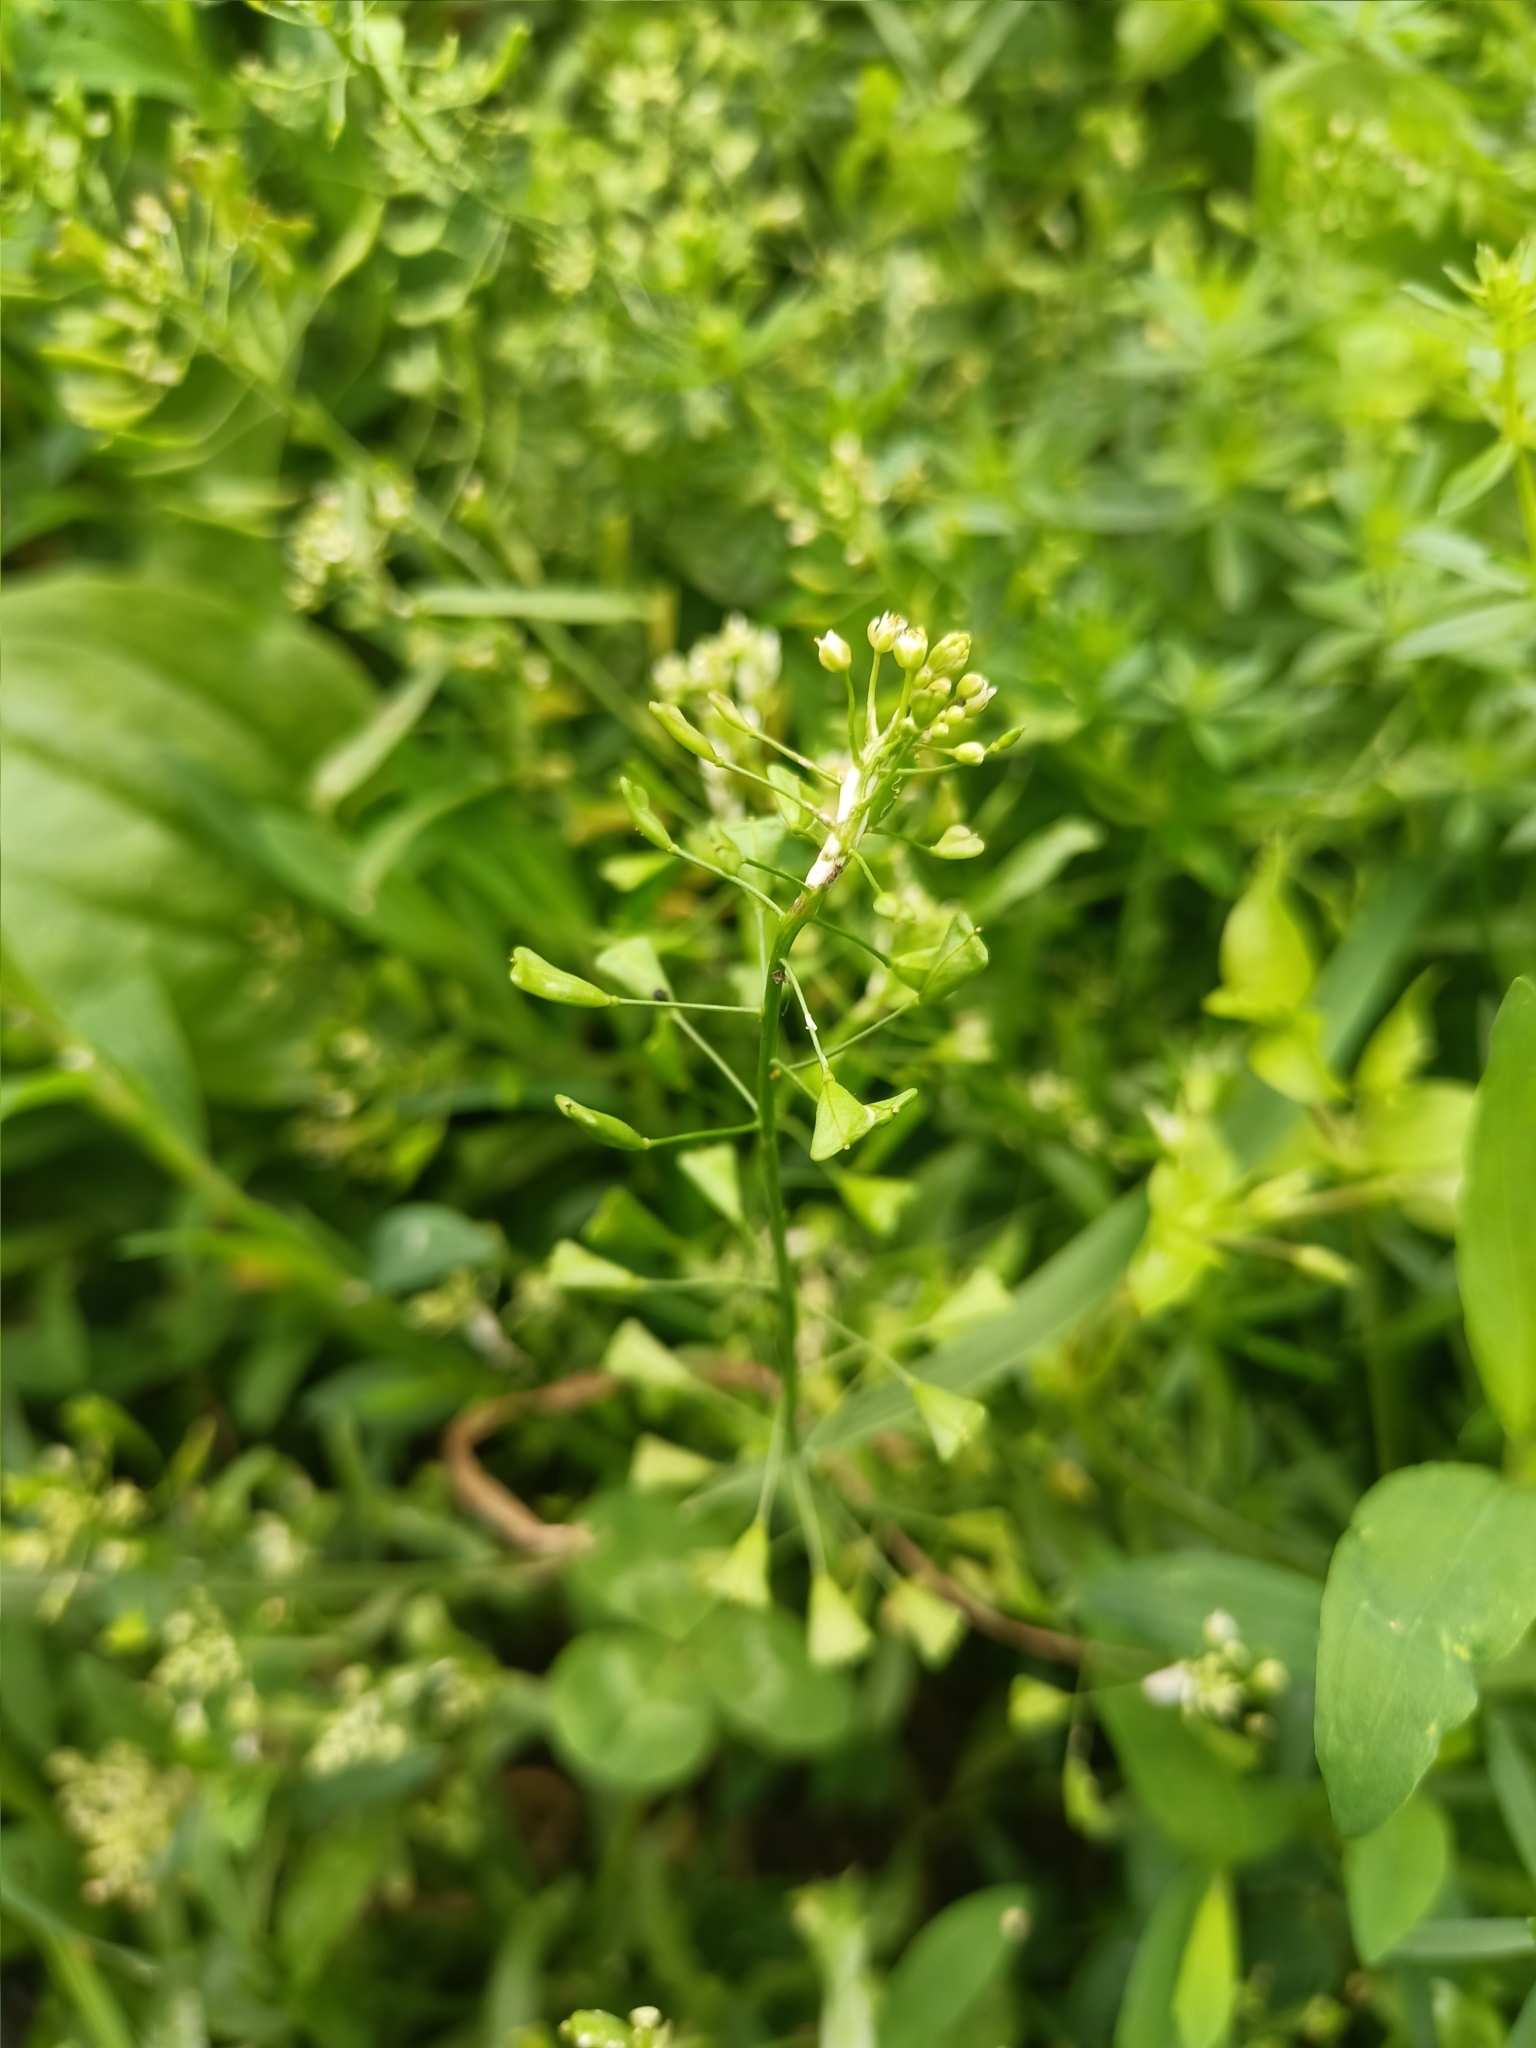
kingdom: Plantae
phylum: Tracheophyta
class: Magnoliopsida
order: Brassicales
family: Brassicaceae
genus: Capsella
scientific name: Capsella bursa-pastoris
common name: Shepherd's purse
